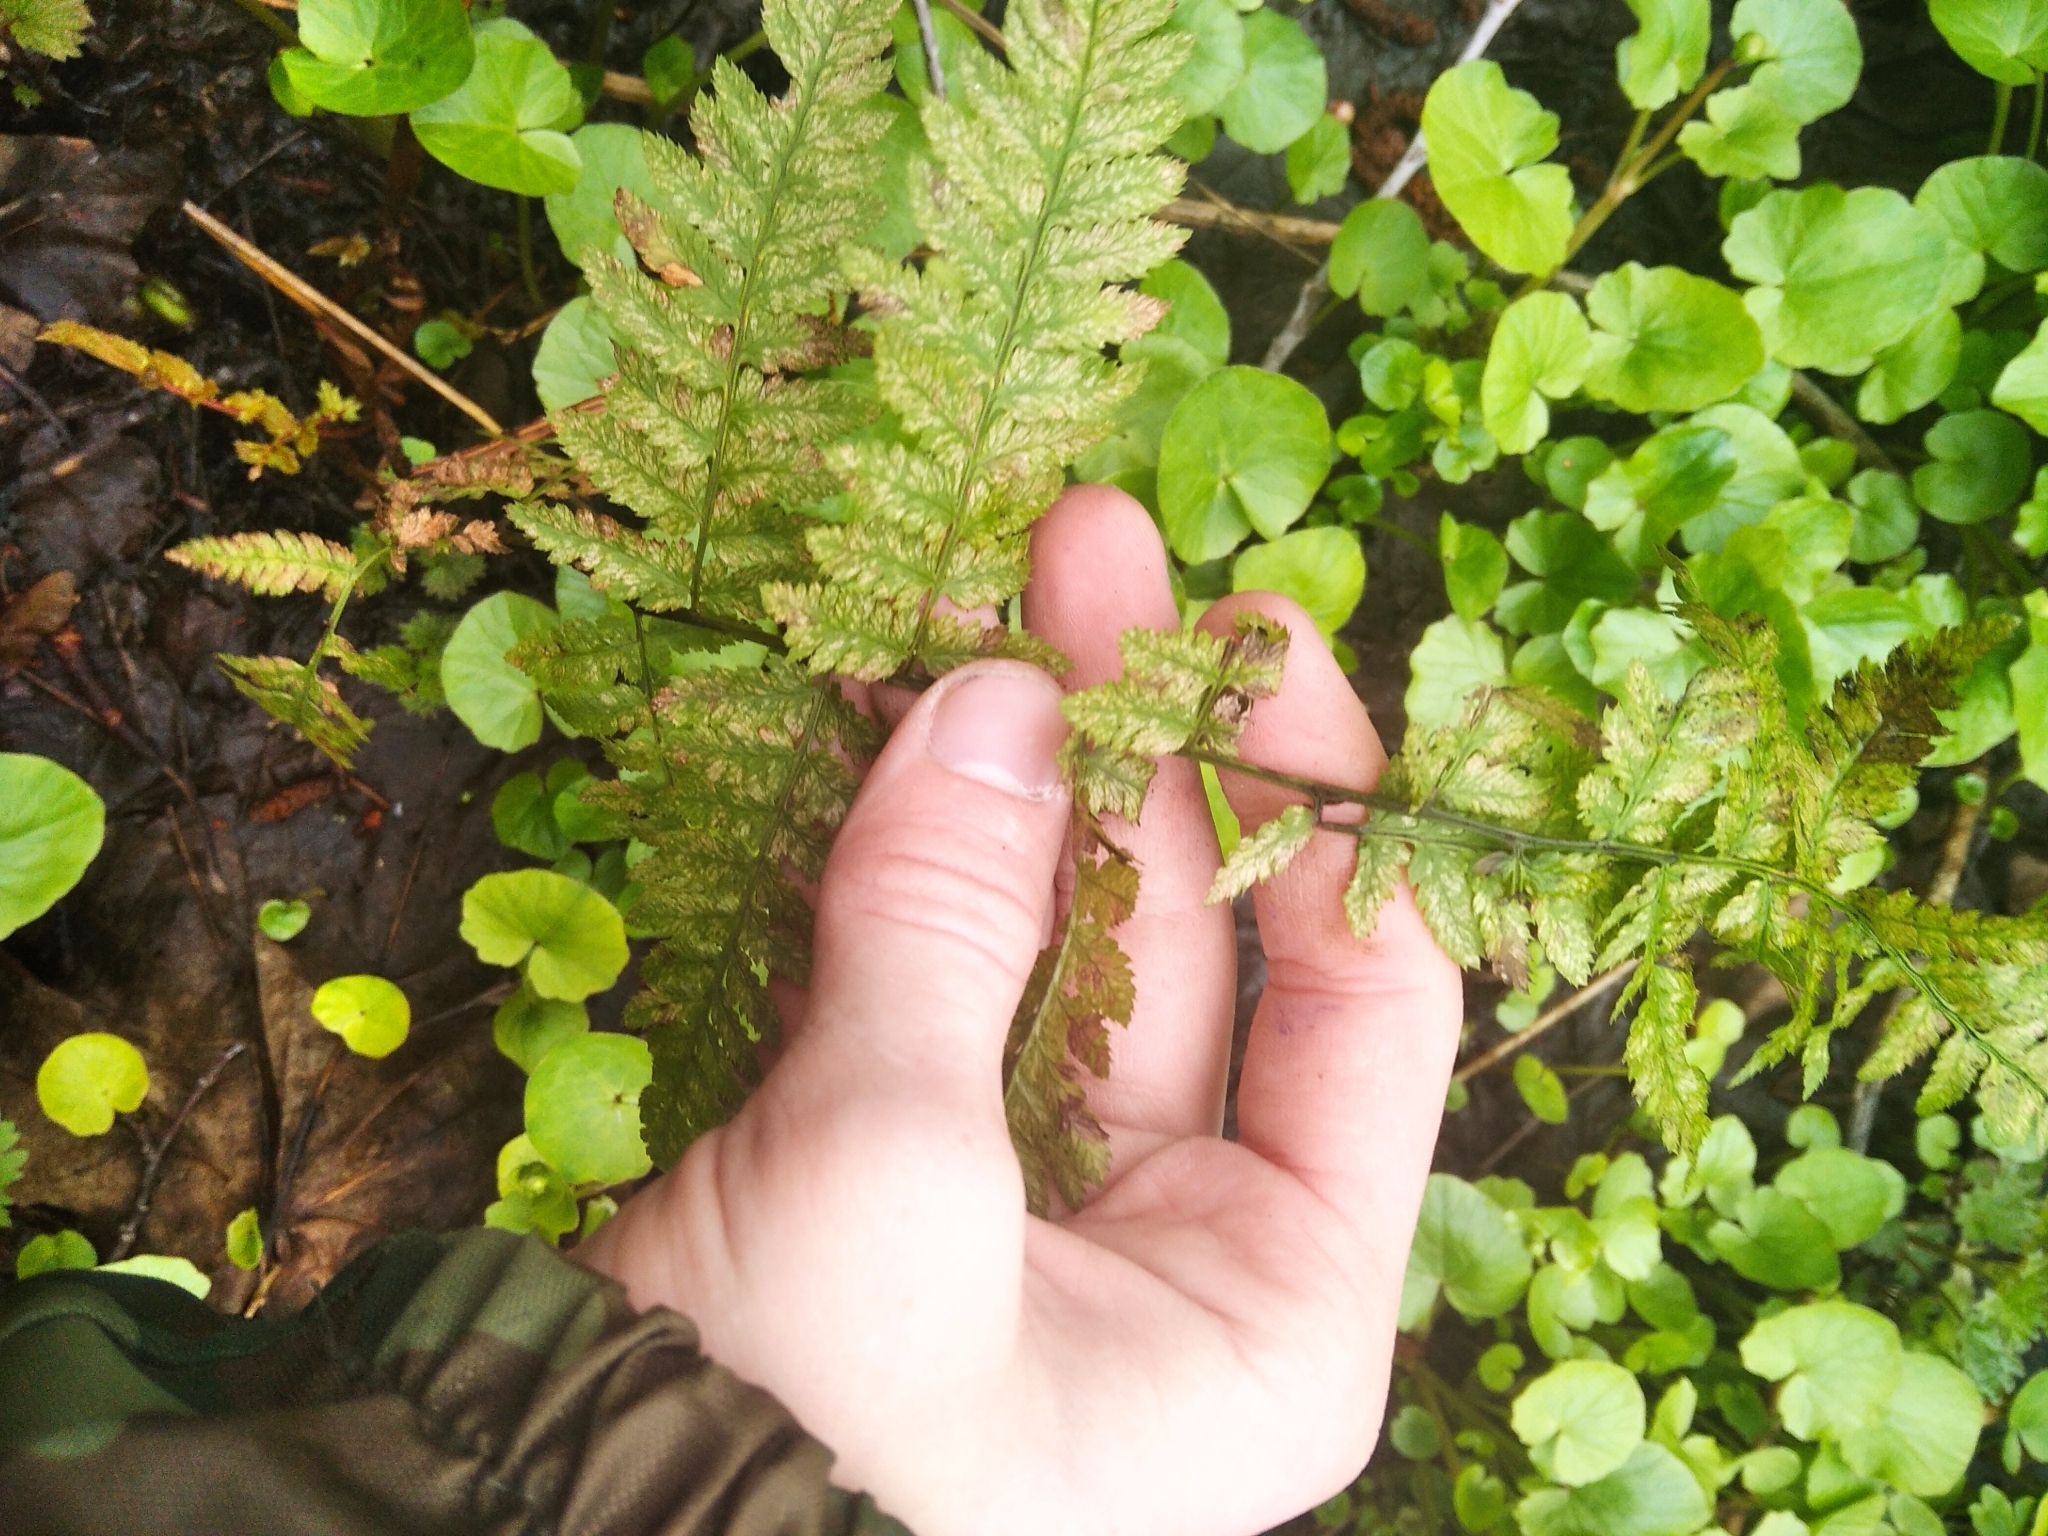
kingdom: Plantae
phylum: Tracheophyta
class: Polypodiopsida
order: Polypodiales
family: Dryopteridaceae
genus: Dryopteris
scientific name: Dryopteris carthusiana
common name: Narrow buckler-fern
